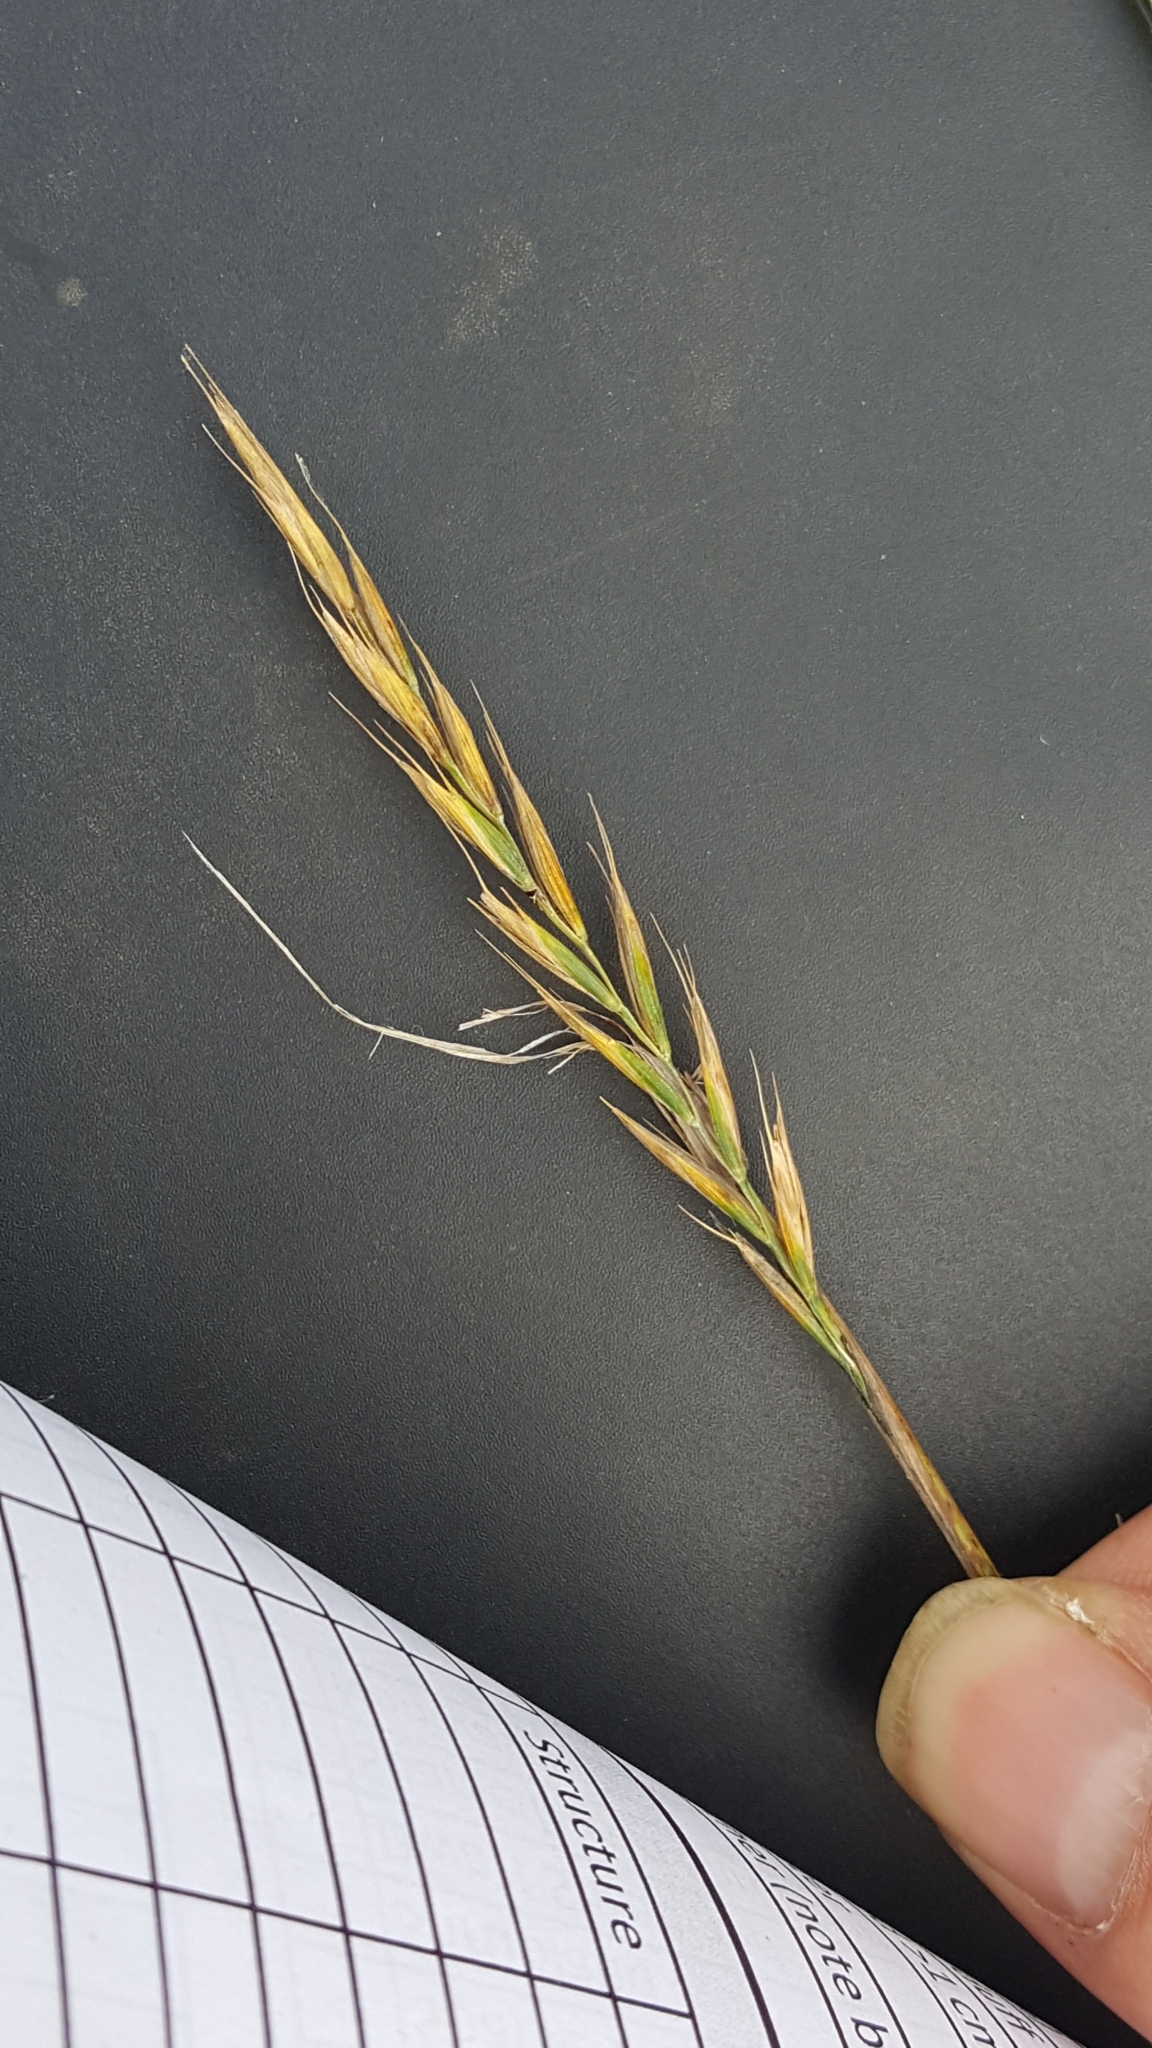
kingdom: Plantae
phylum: Tracheophyta
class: Liliopsida
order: Poales
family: Poaceae
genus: Elymus
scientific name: Elymus repens
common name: Quackgrass
